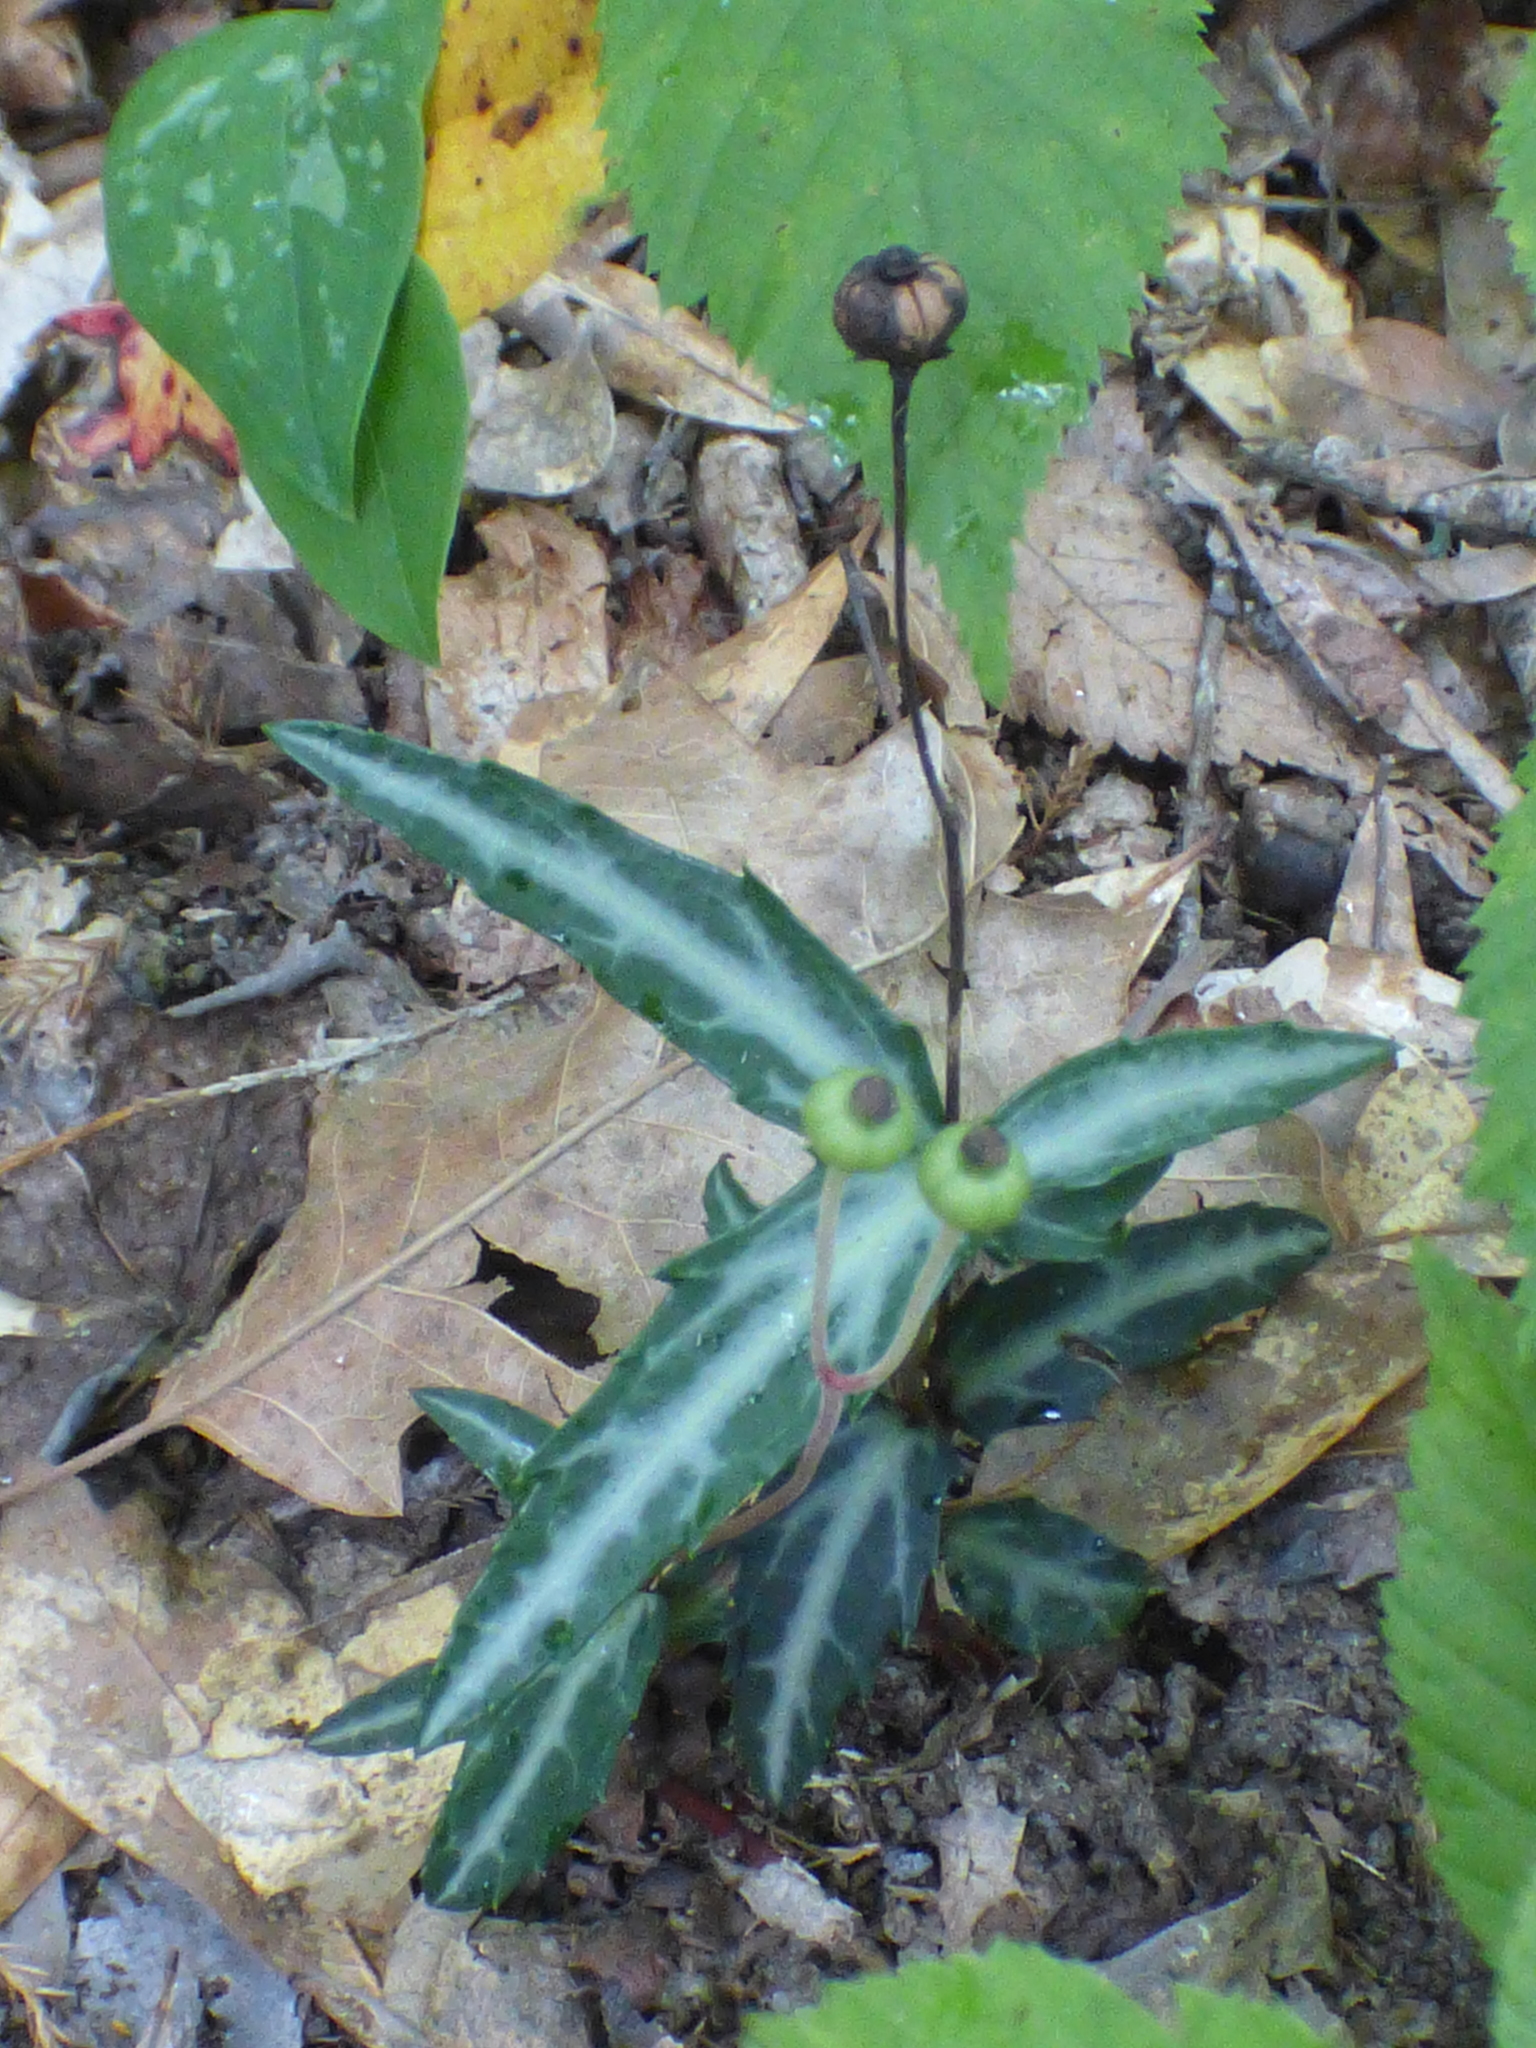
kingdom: Plantae
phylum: Tracheophyta
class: Magnoliopsida
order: Ericales
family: Ericaceae
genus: Chimaphila
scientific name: Chimaphila maculata
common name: Spotted pipsissewa
